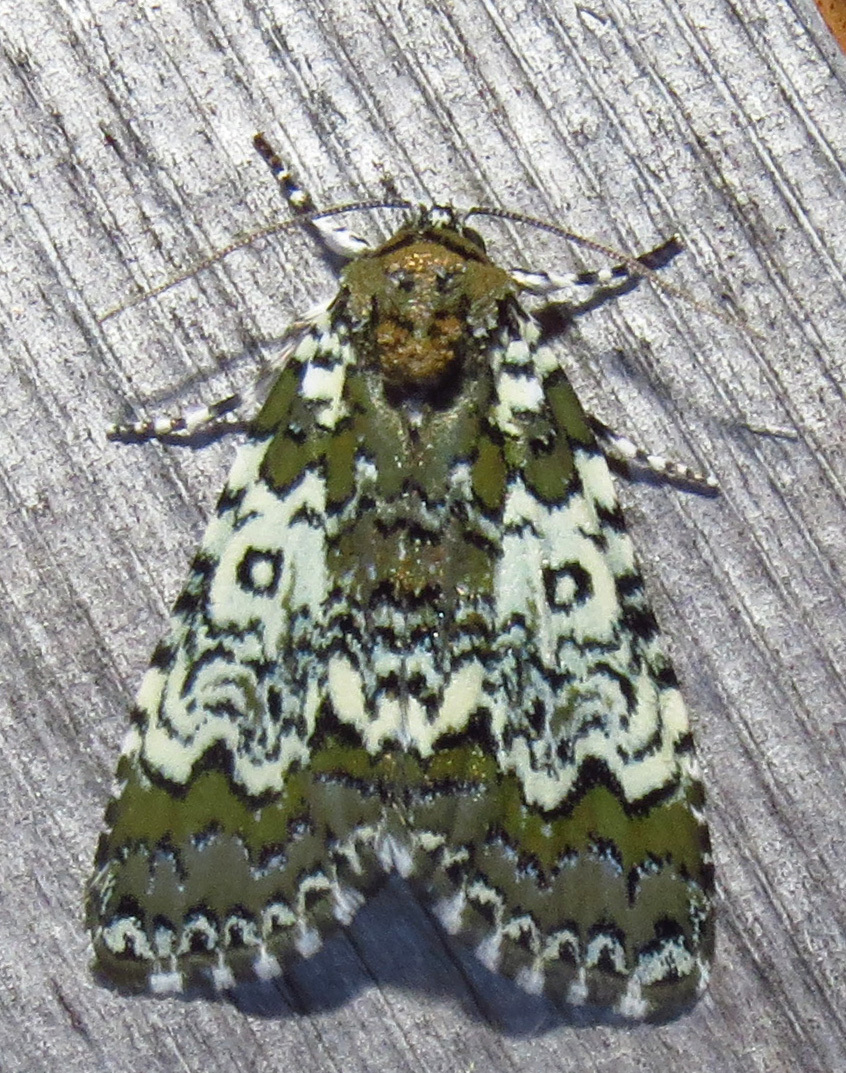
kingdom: Animalia
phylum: Arthropoda
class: Insecta
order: Lepidoptera
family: Noctuidae
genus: Cerma
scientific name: Cerma cora
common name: Bird dropping moth
